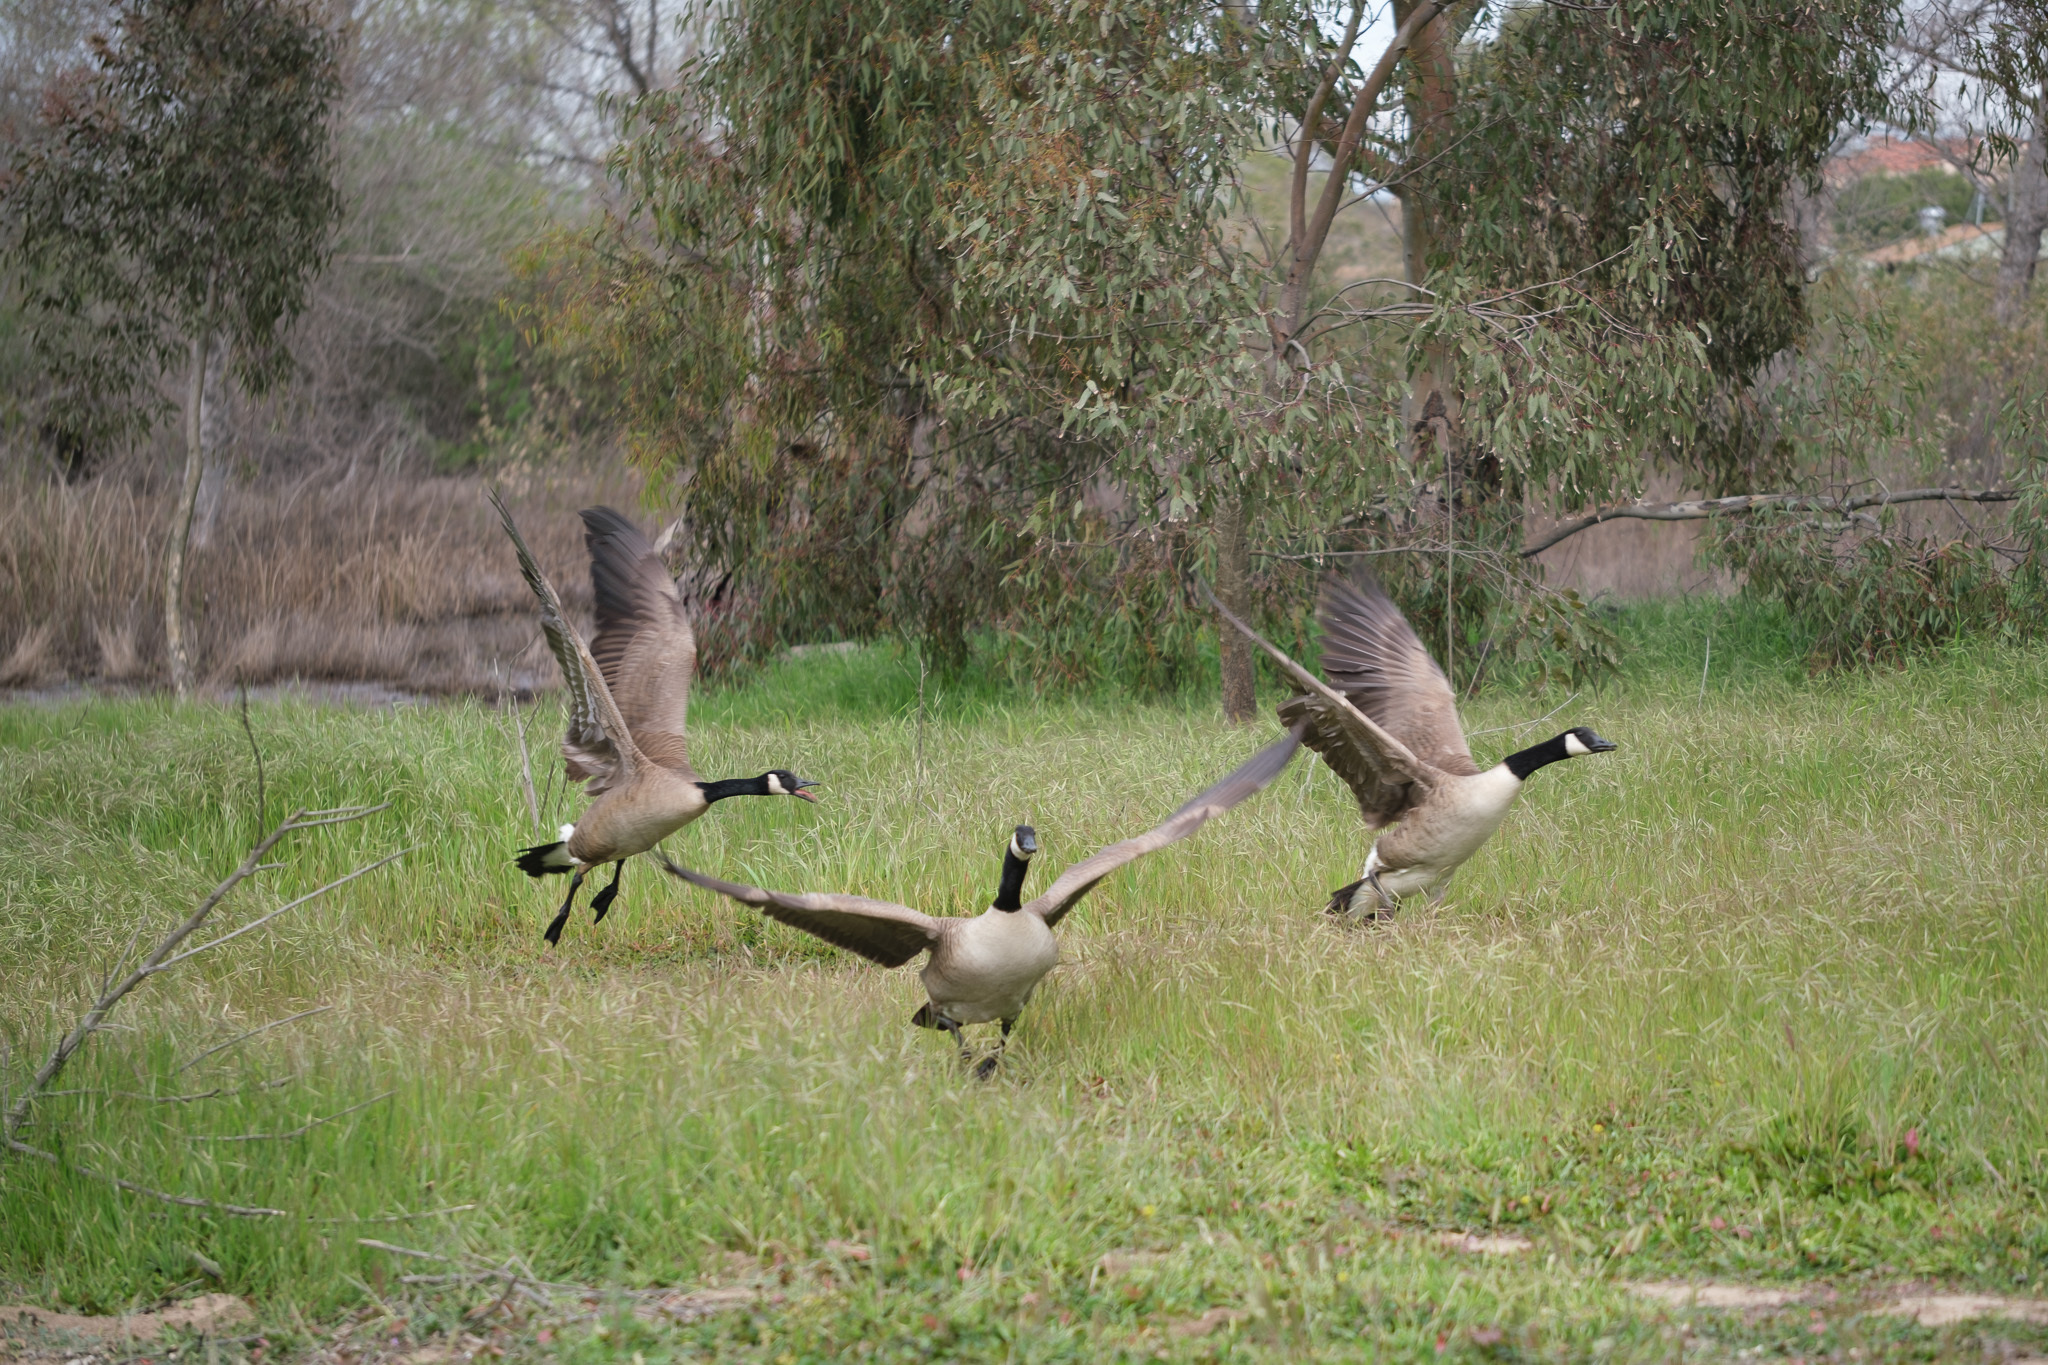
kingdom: Animalia
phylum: Chordata
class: Aves
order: Anseriformes
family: Anatidae
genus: Branta
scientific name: Branta canadensis
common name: Canada goose
